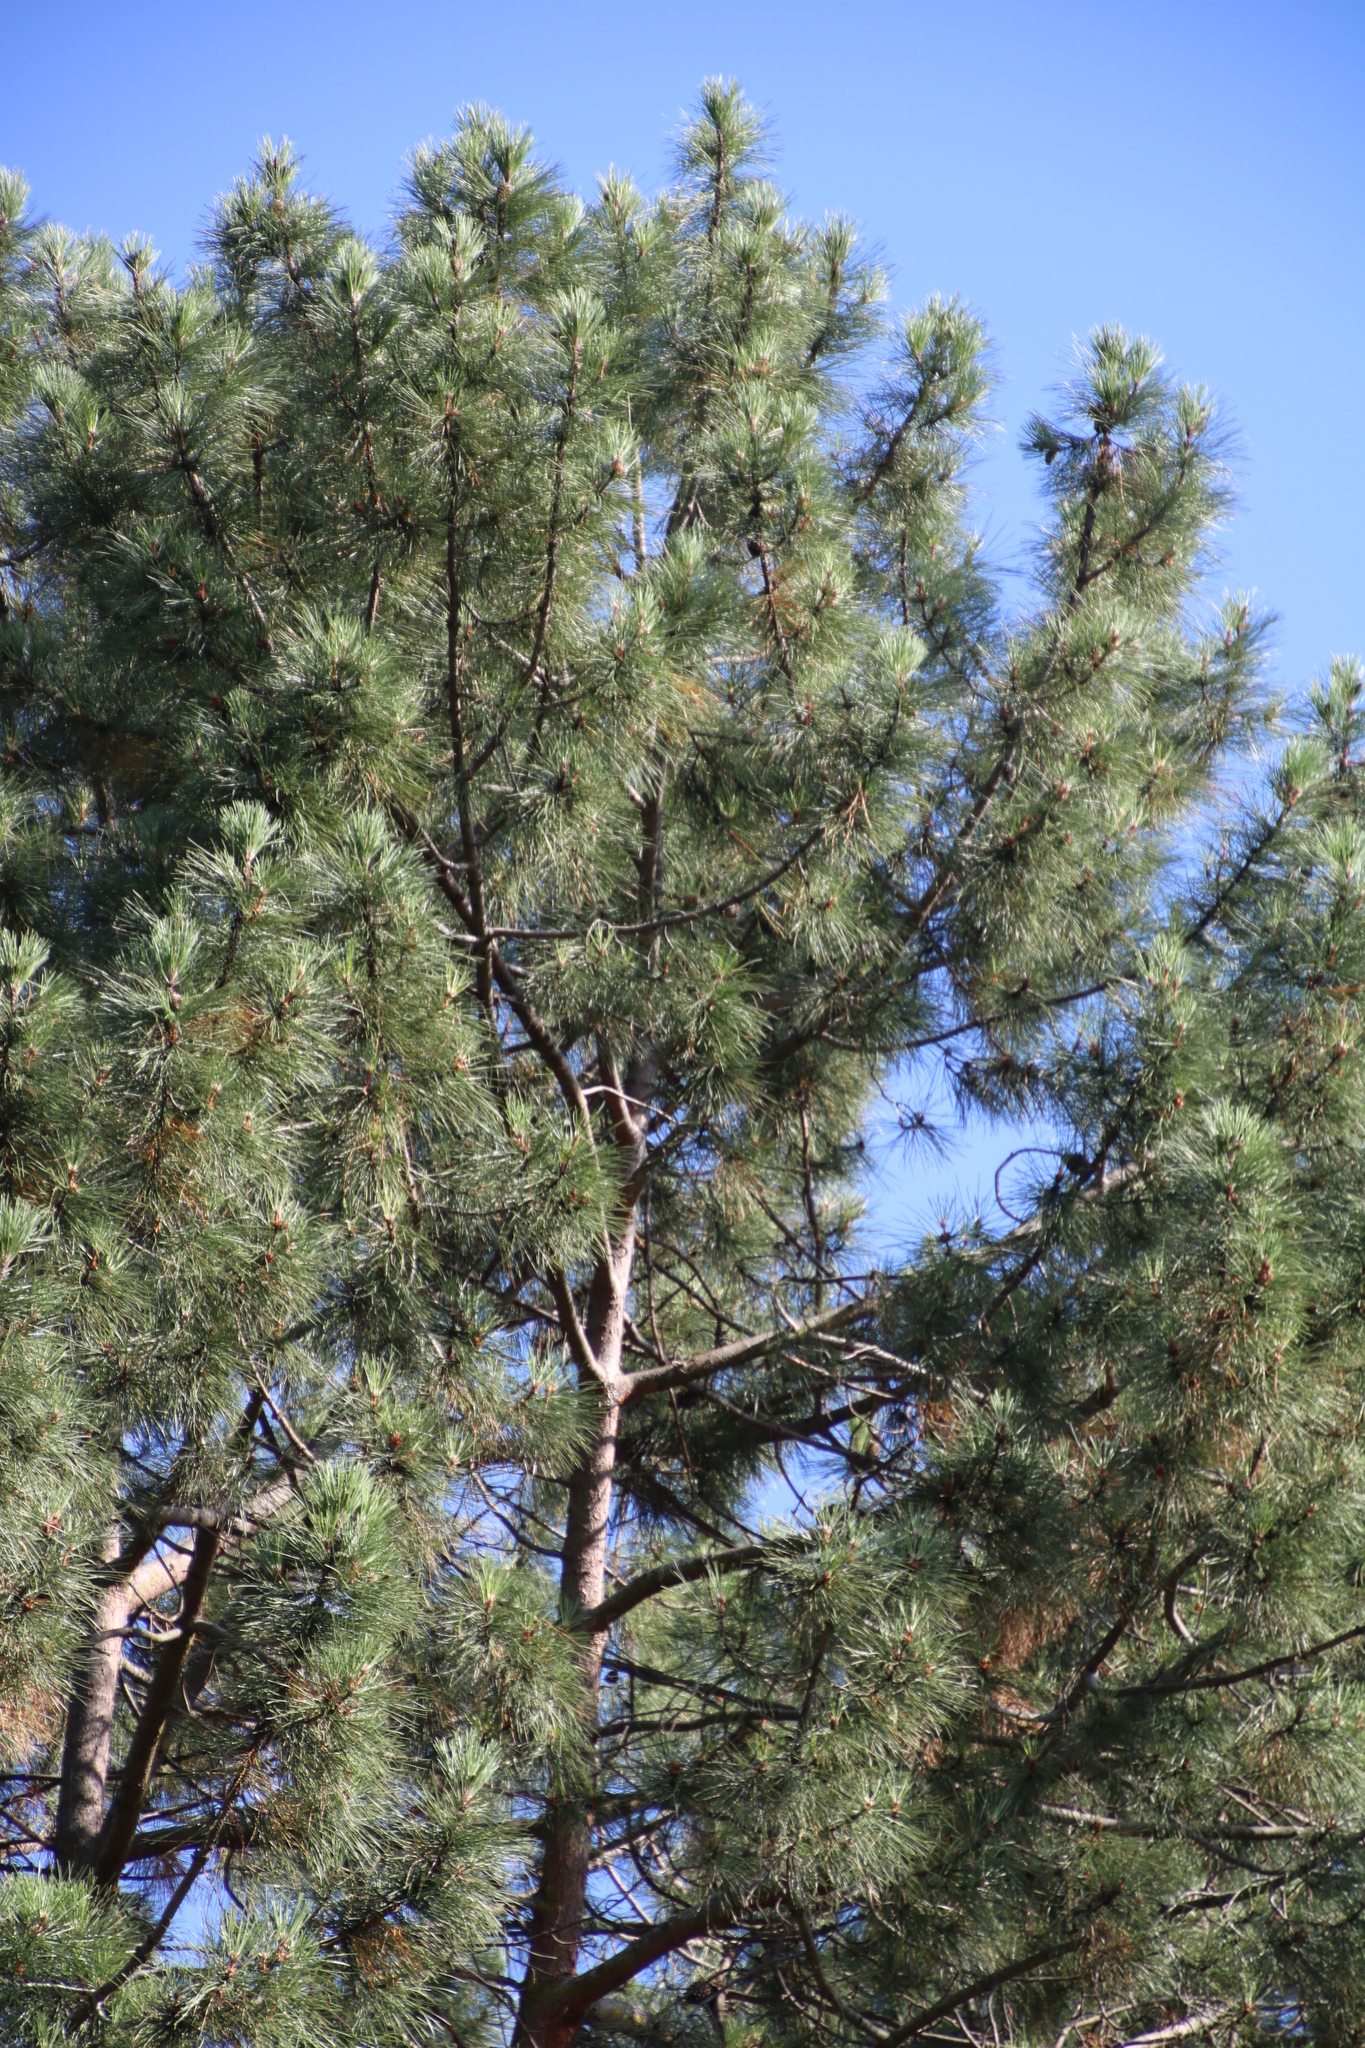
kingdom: Plantae
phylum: Tracheophyta
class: Pinopsida
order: Pinales
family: Pinaceae
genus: Pinus
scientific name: Pinus pinaster
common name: Maritime pine
